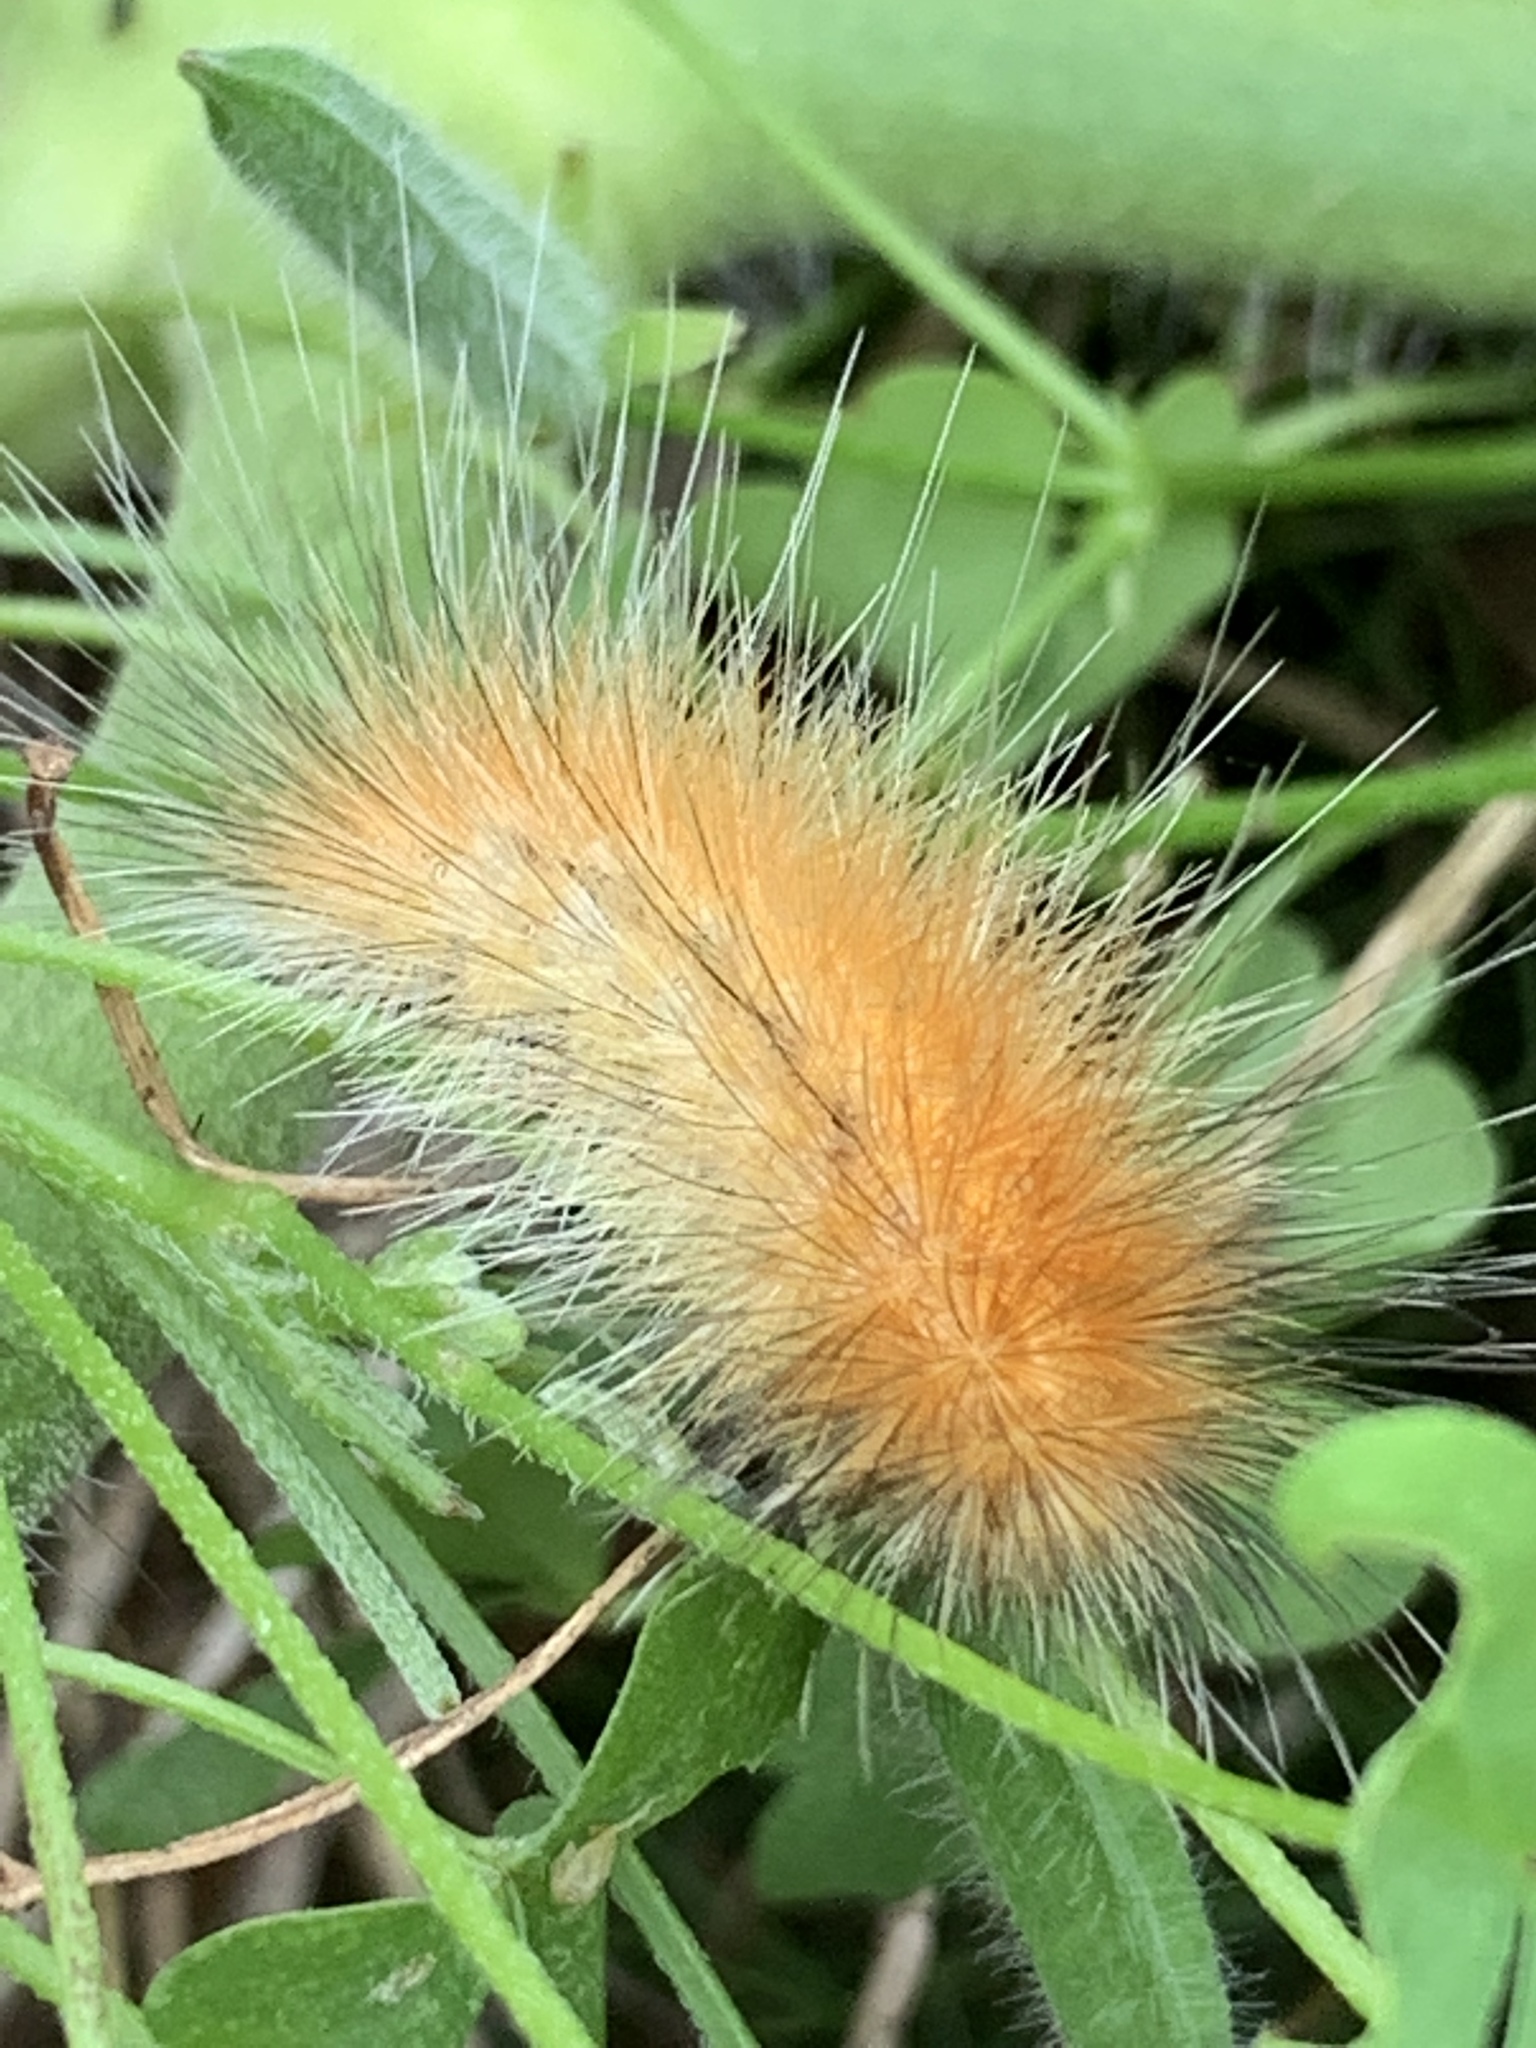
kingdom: Animalia
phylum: Arthropoda
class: Insecta
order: Lepidoptera
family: Erebidae
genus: Spilosoma
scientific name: Spilosoma virginica
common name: Virginia tiger moth
